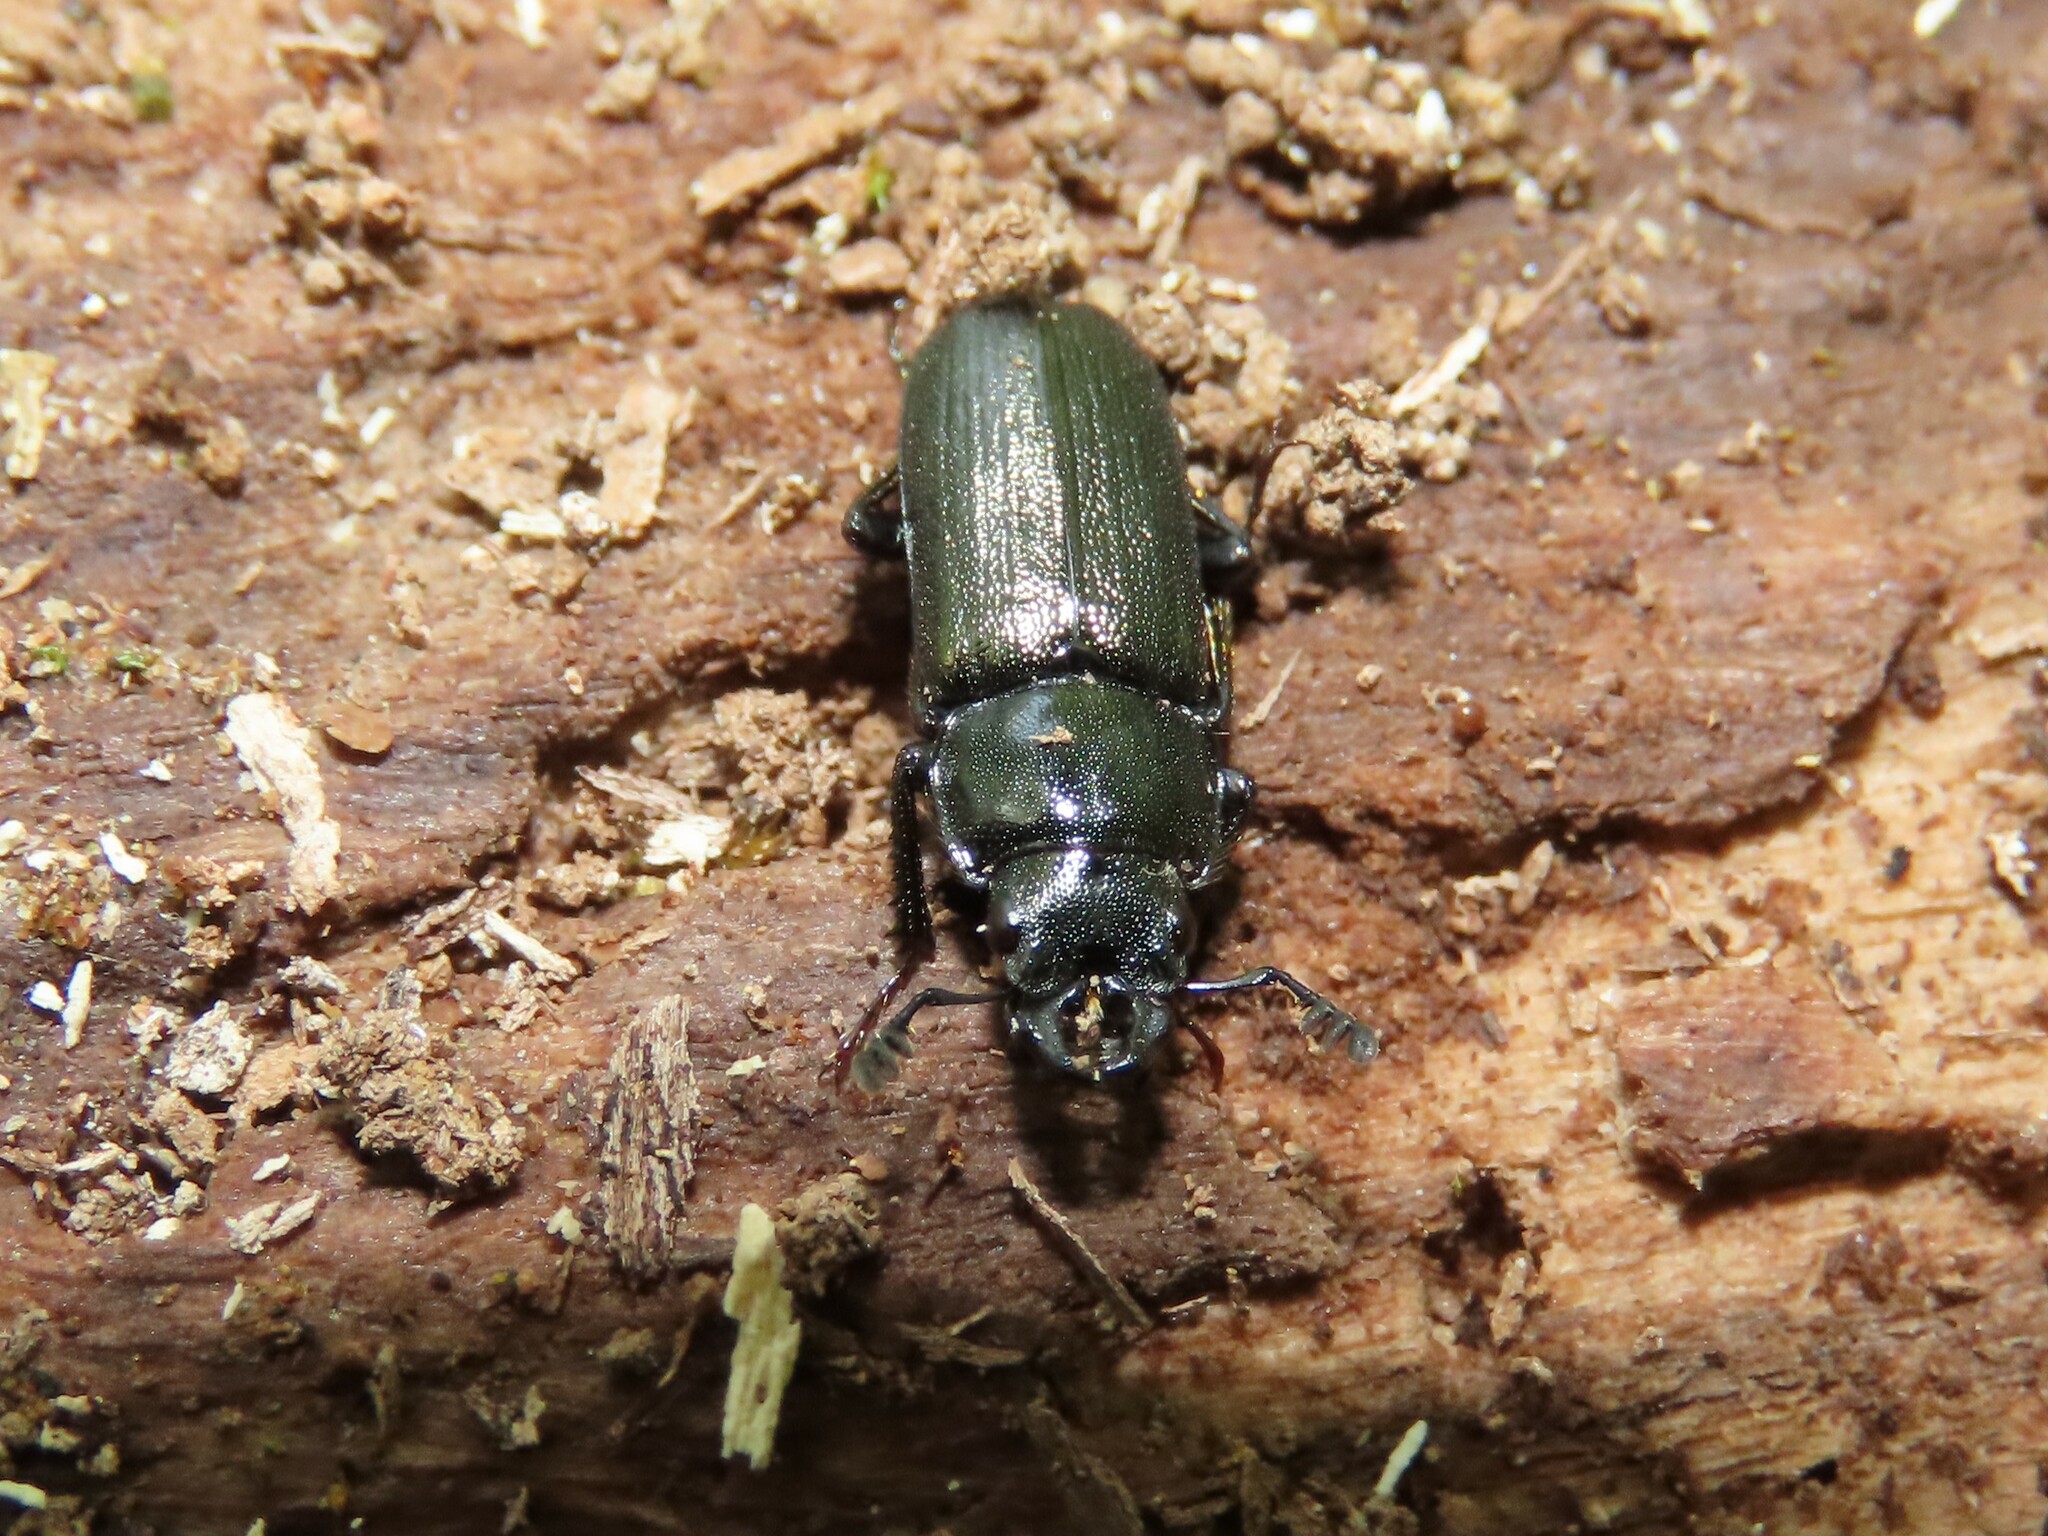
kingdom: Animalia
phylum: Arthropoda
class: Insecta
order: Coleoptera
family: Lucanidae
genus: Platycerus
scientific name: Platycerus quercus
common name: Oak stag beetle
